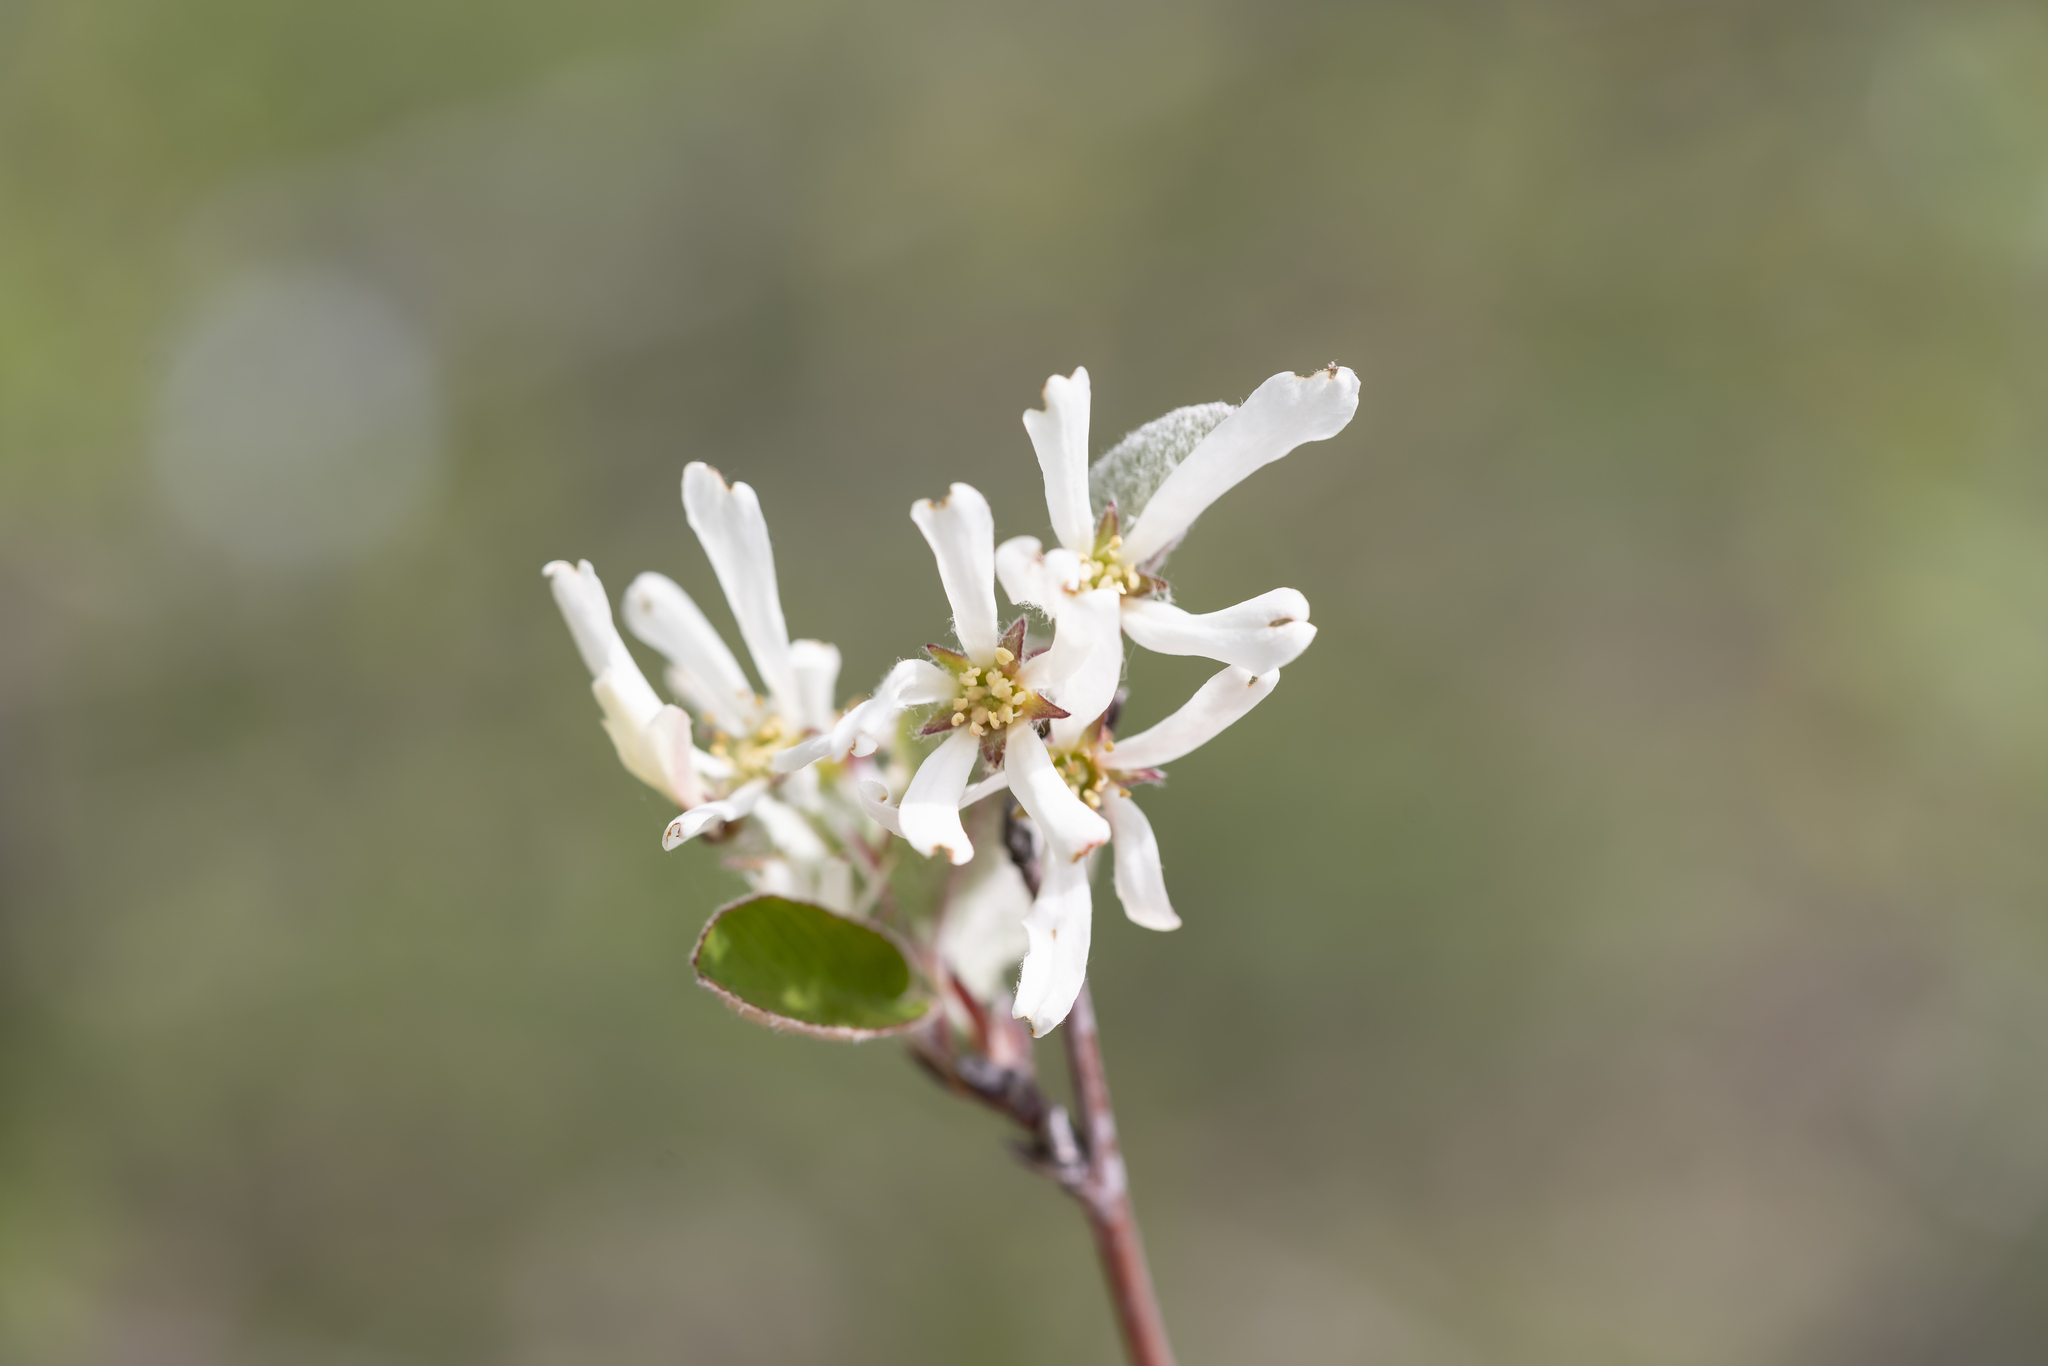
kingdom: Plantae
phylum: Tracheophyta
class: Magnoliopsida
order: Rosales
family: Rosaceae
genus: Amelanchier
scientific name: Amelanchier ovalis
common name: Serviceberry
